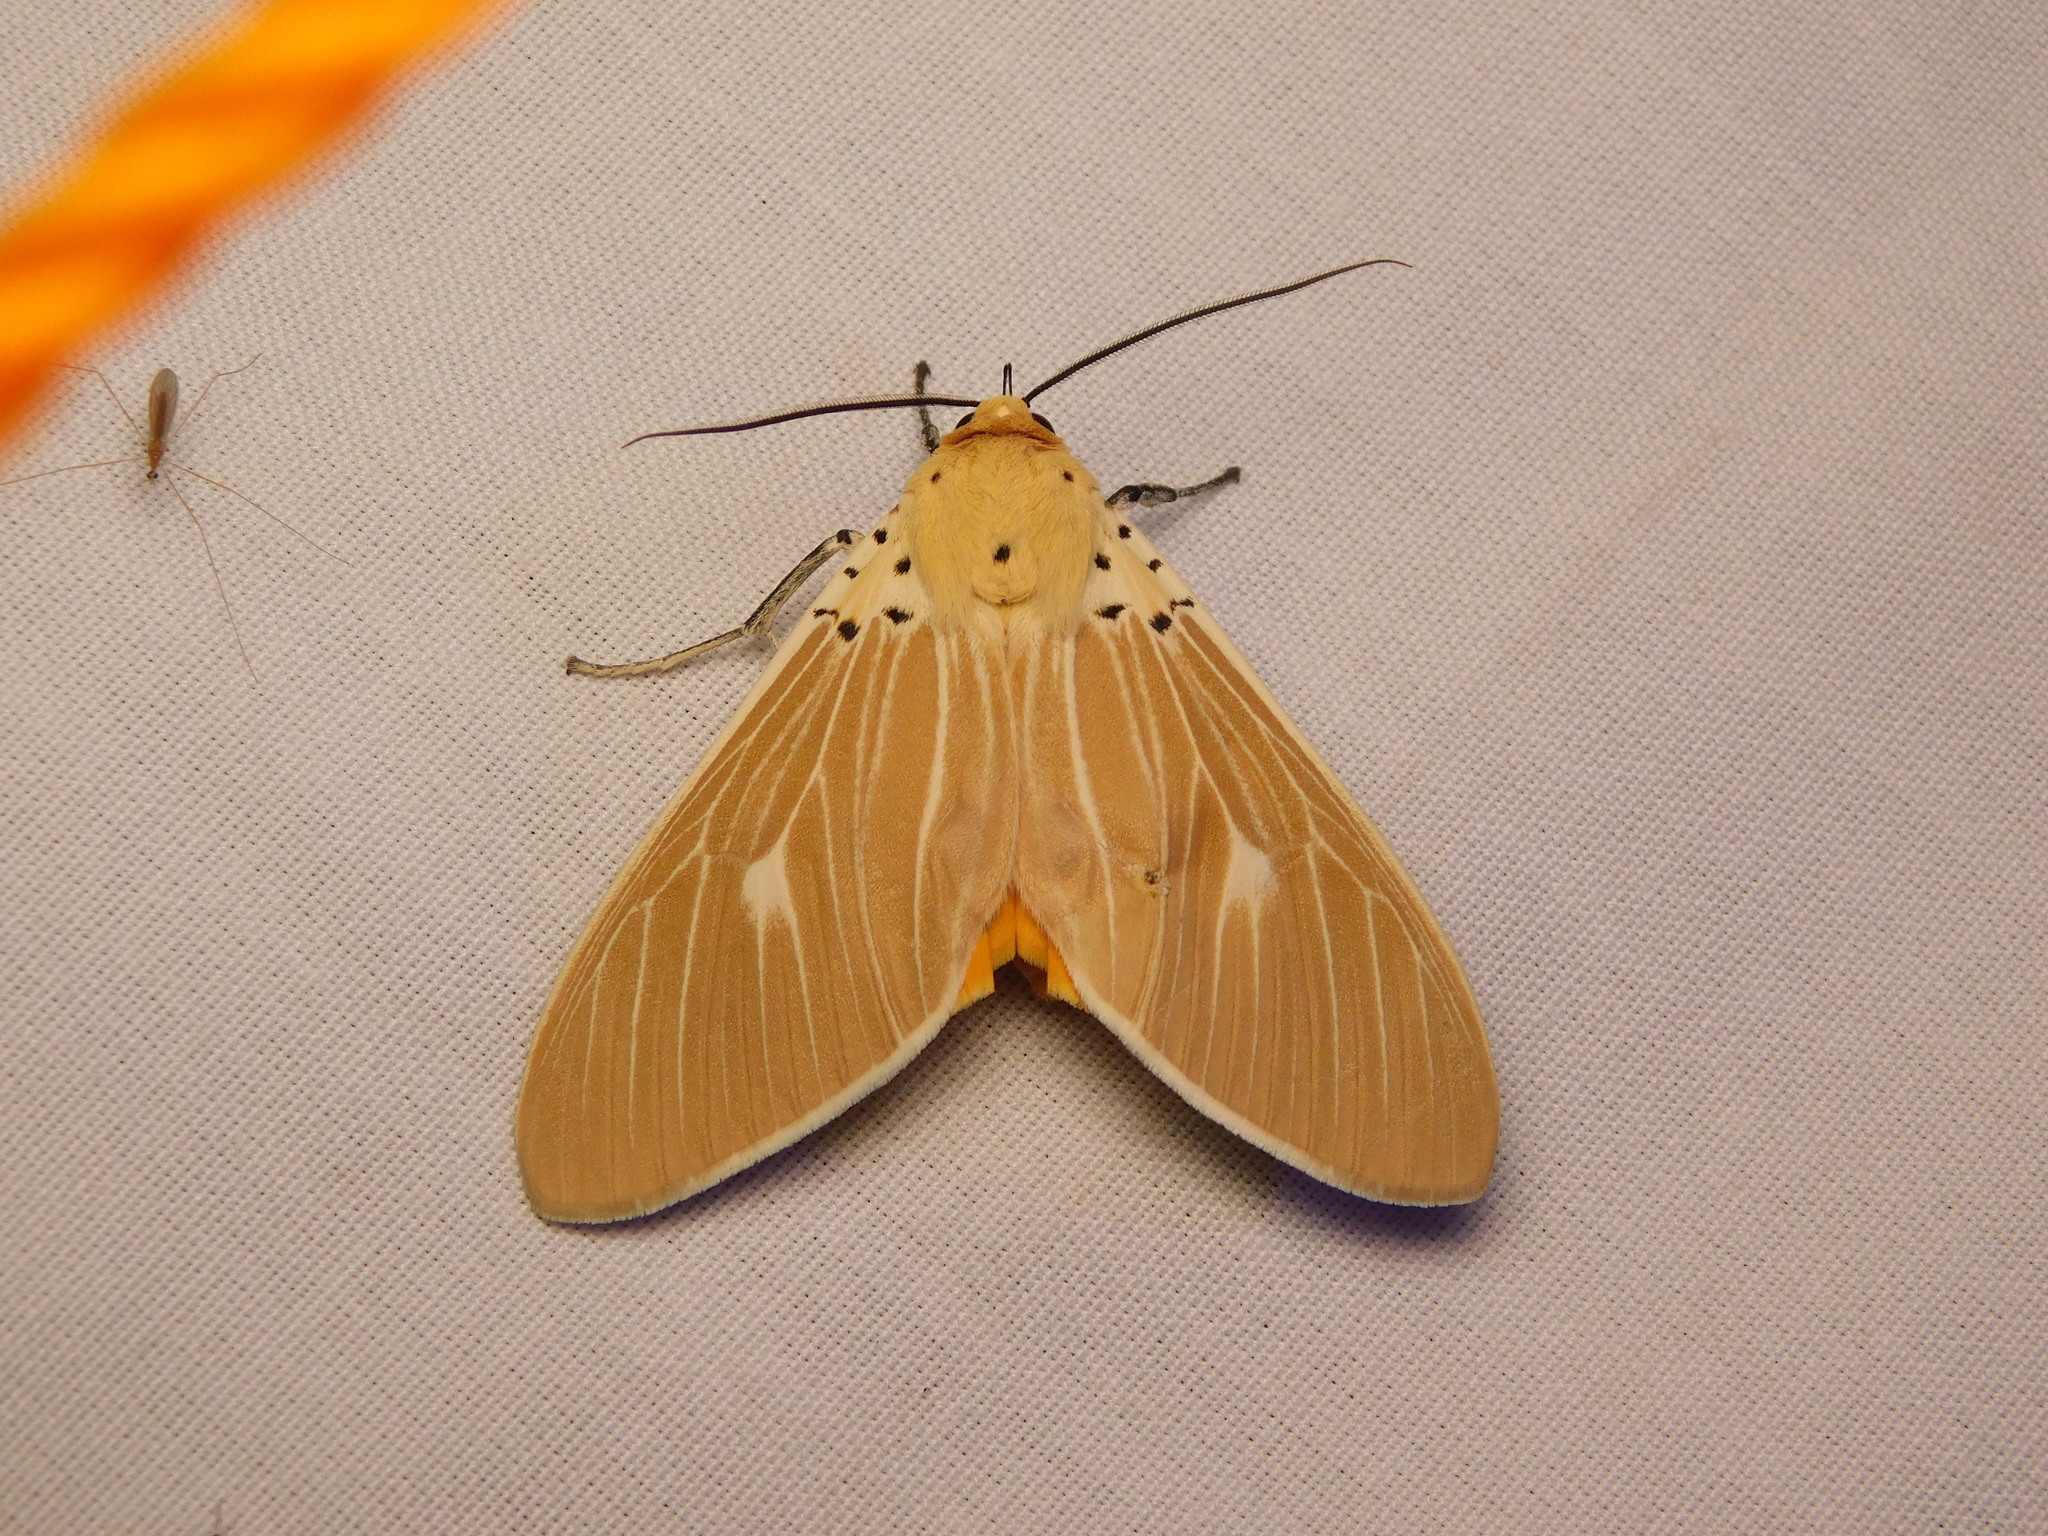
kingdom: Animalia
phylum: Arthropoda
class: Insecta
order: Lepidoptera
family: Erebidae
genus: Asota
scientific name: Asota producta
